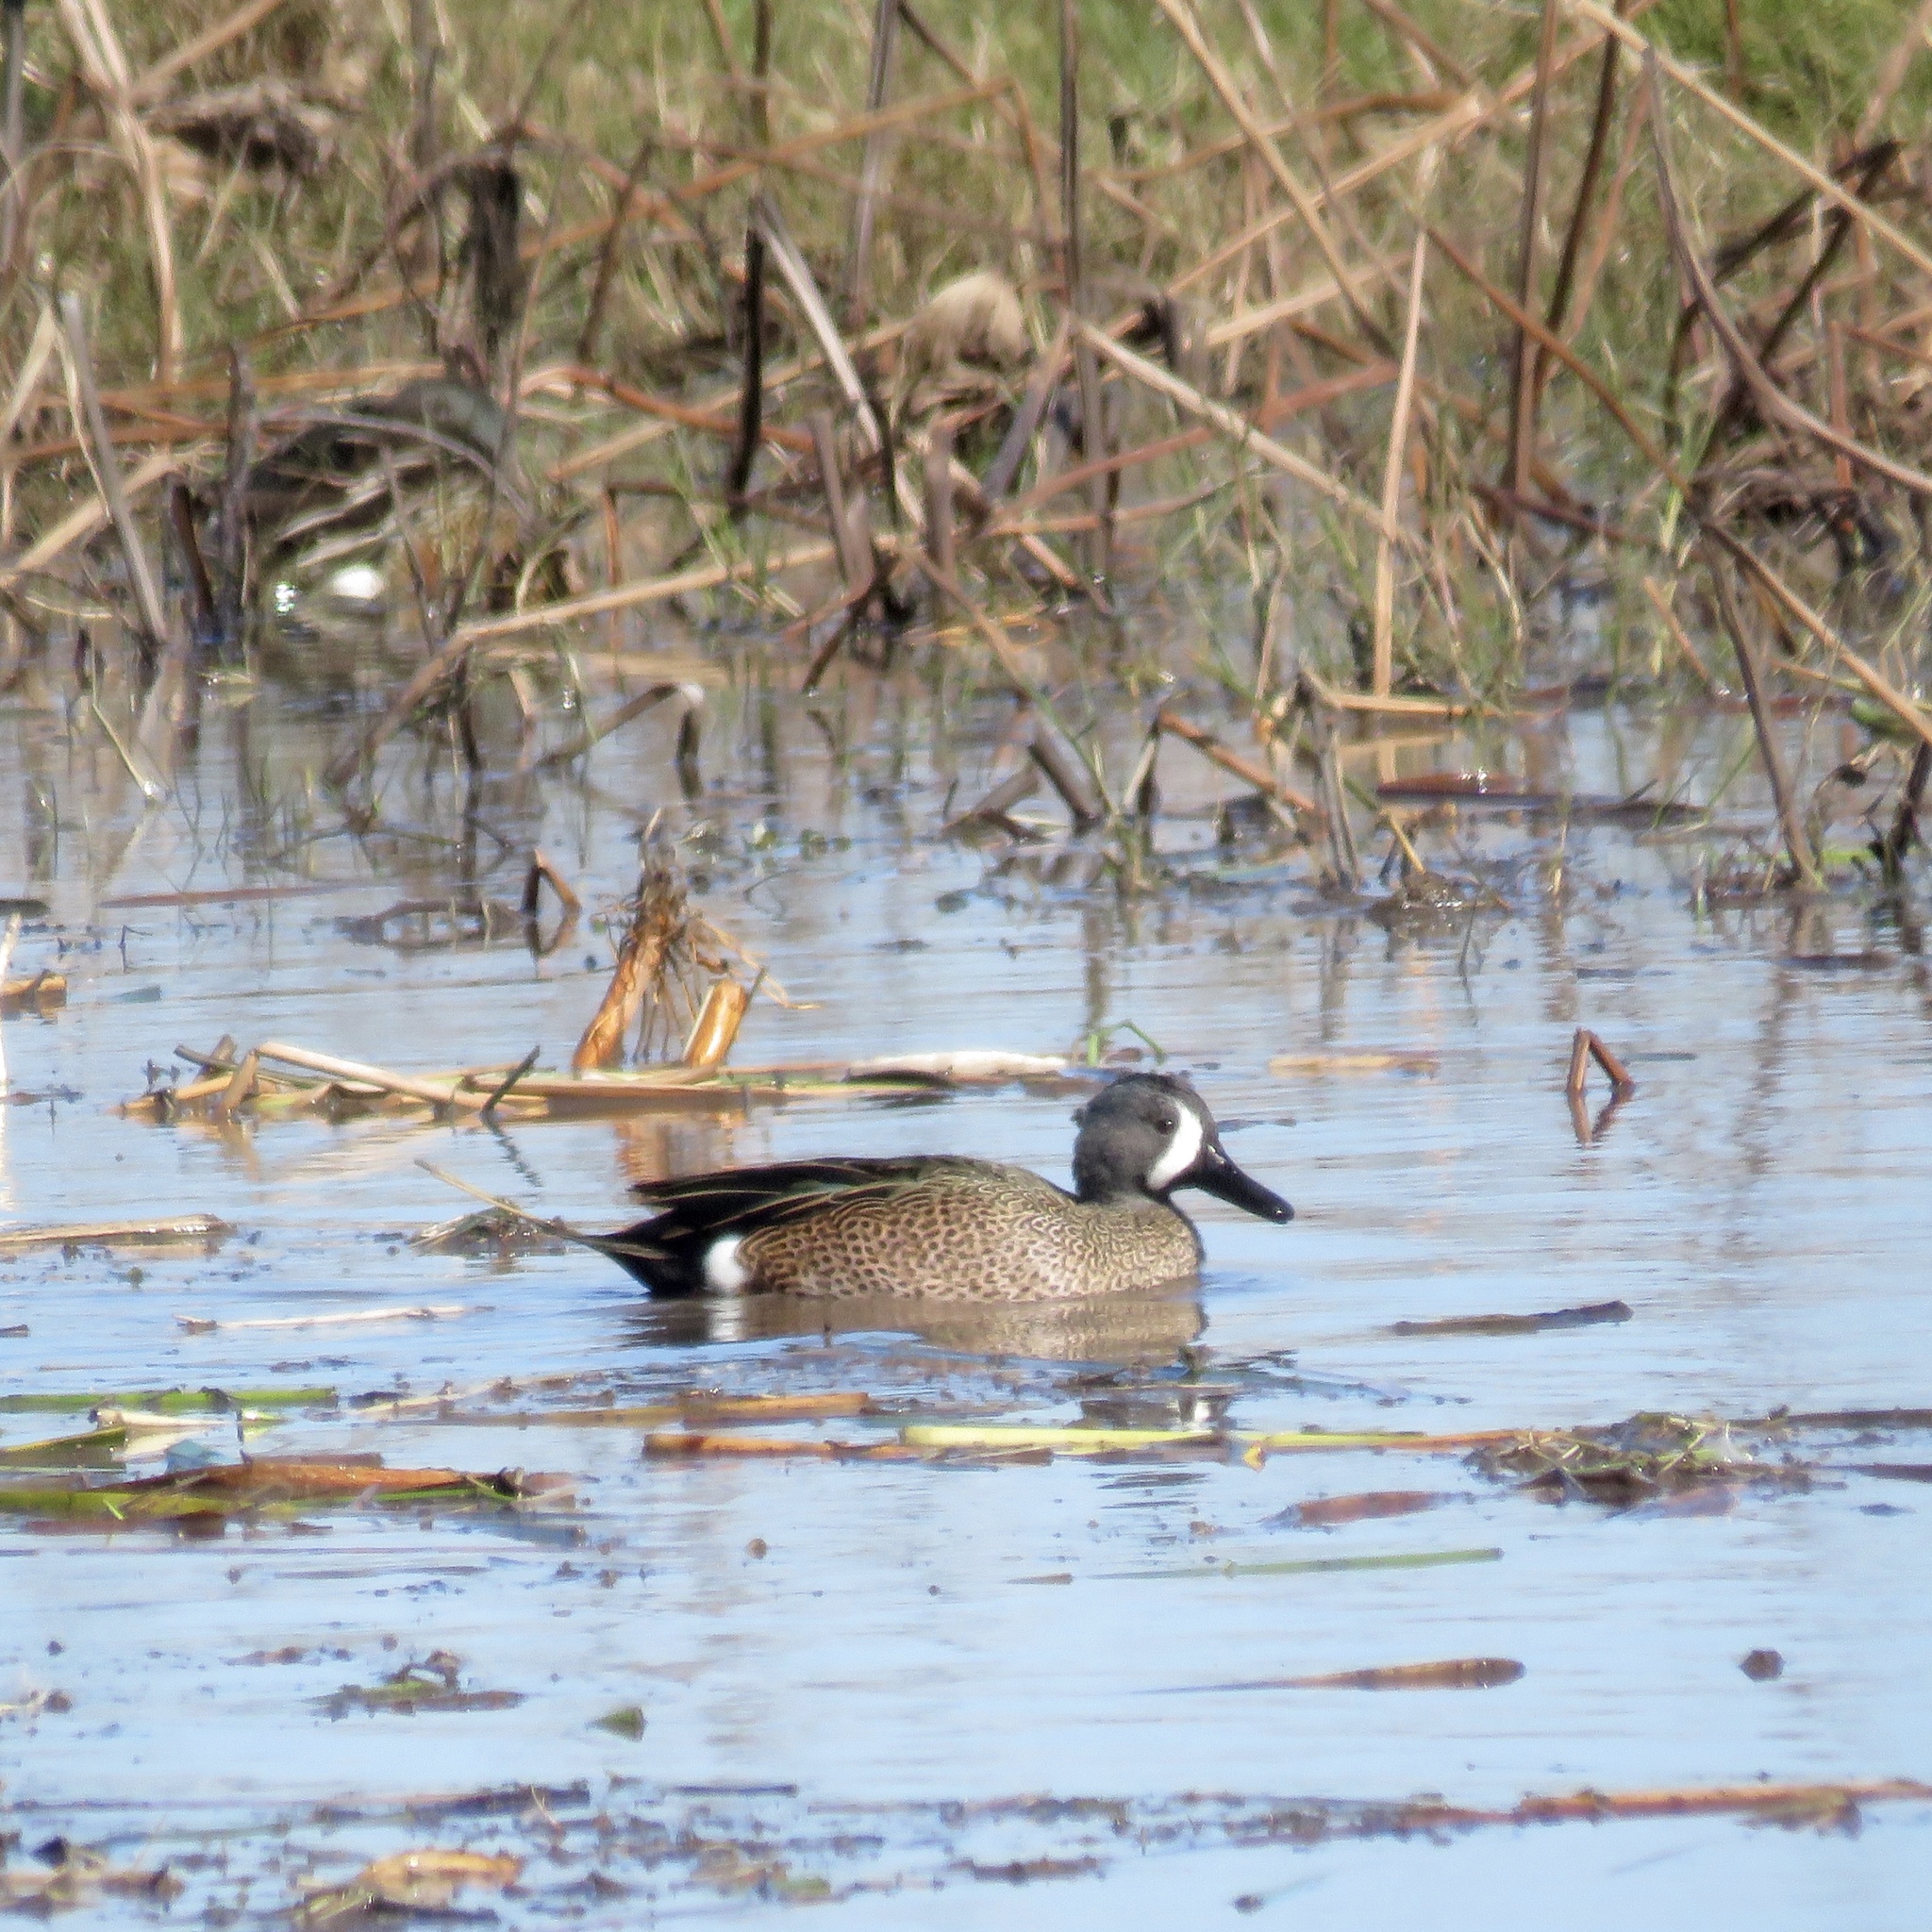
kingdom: Animalia
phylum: Chordata
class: Aves
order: Anseriformes
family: Anatidae
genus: Spatula
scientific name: Spatula discors
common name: Blue-winged teal
